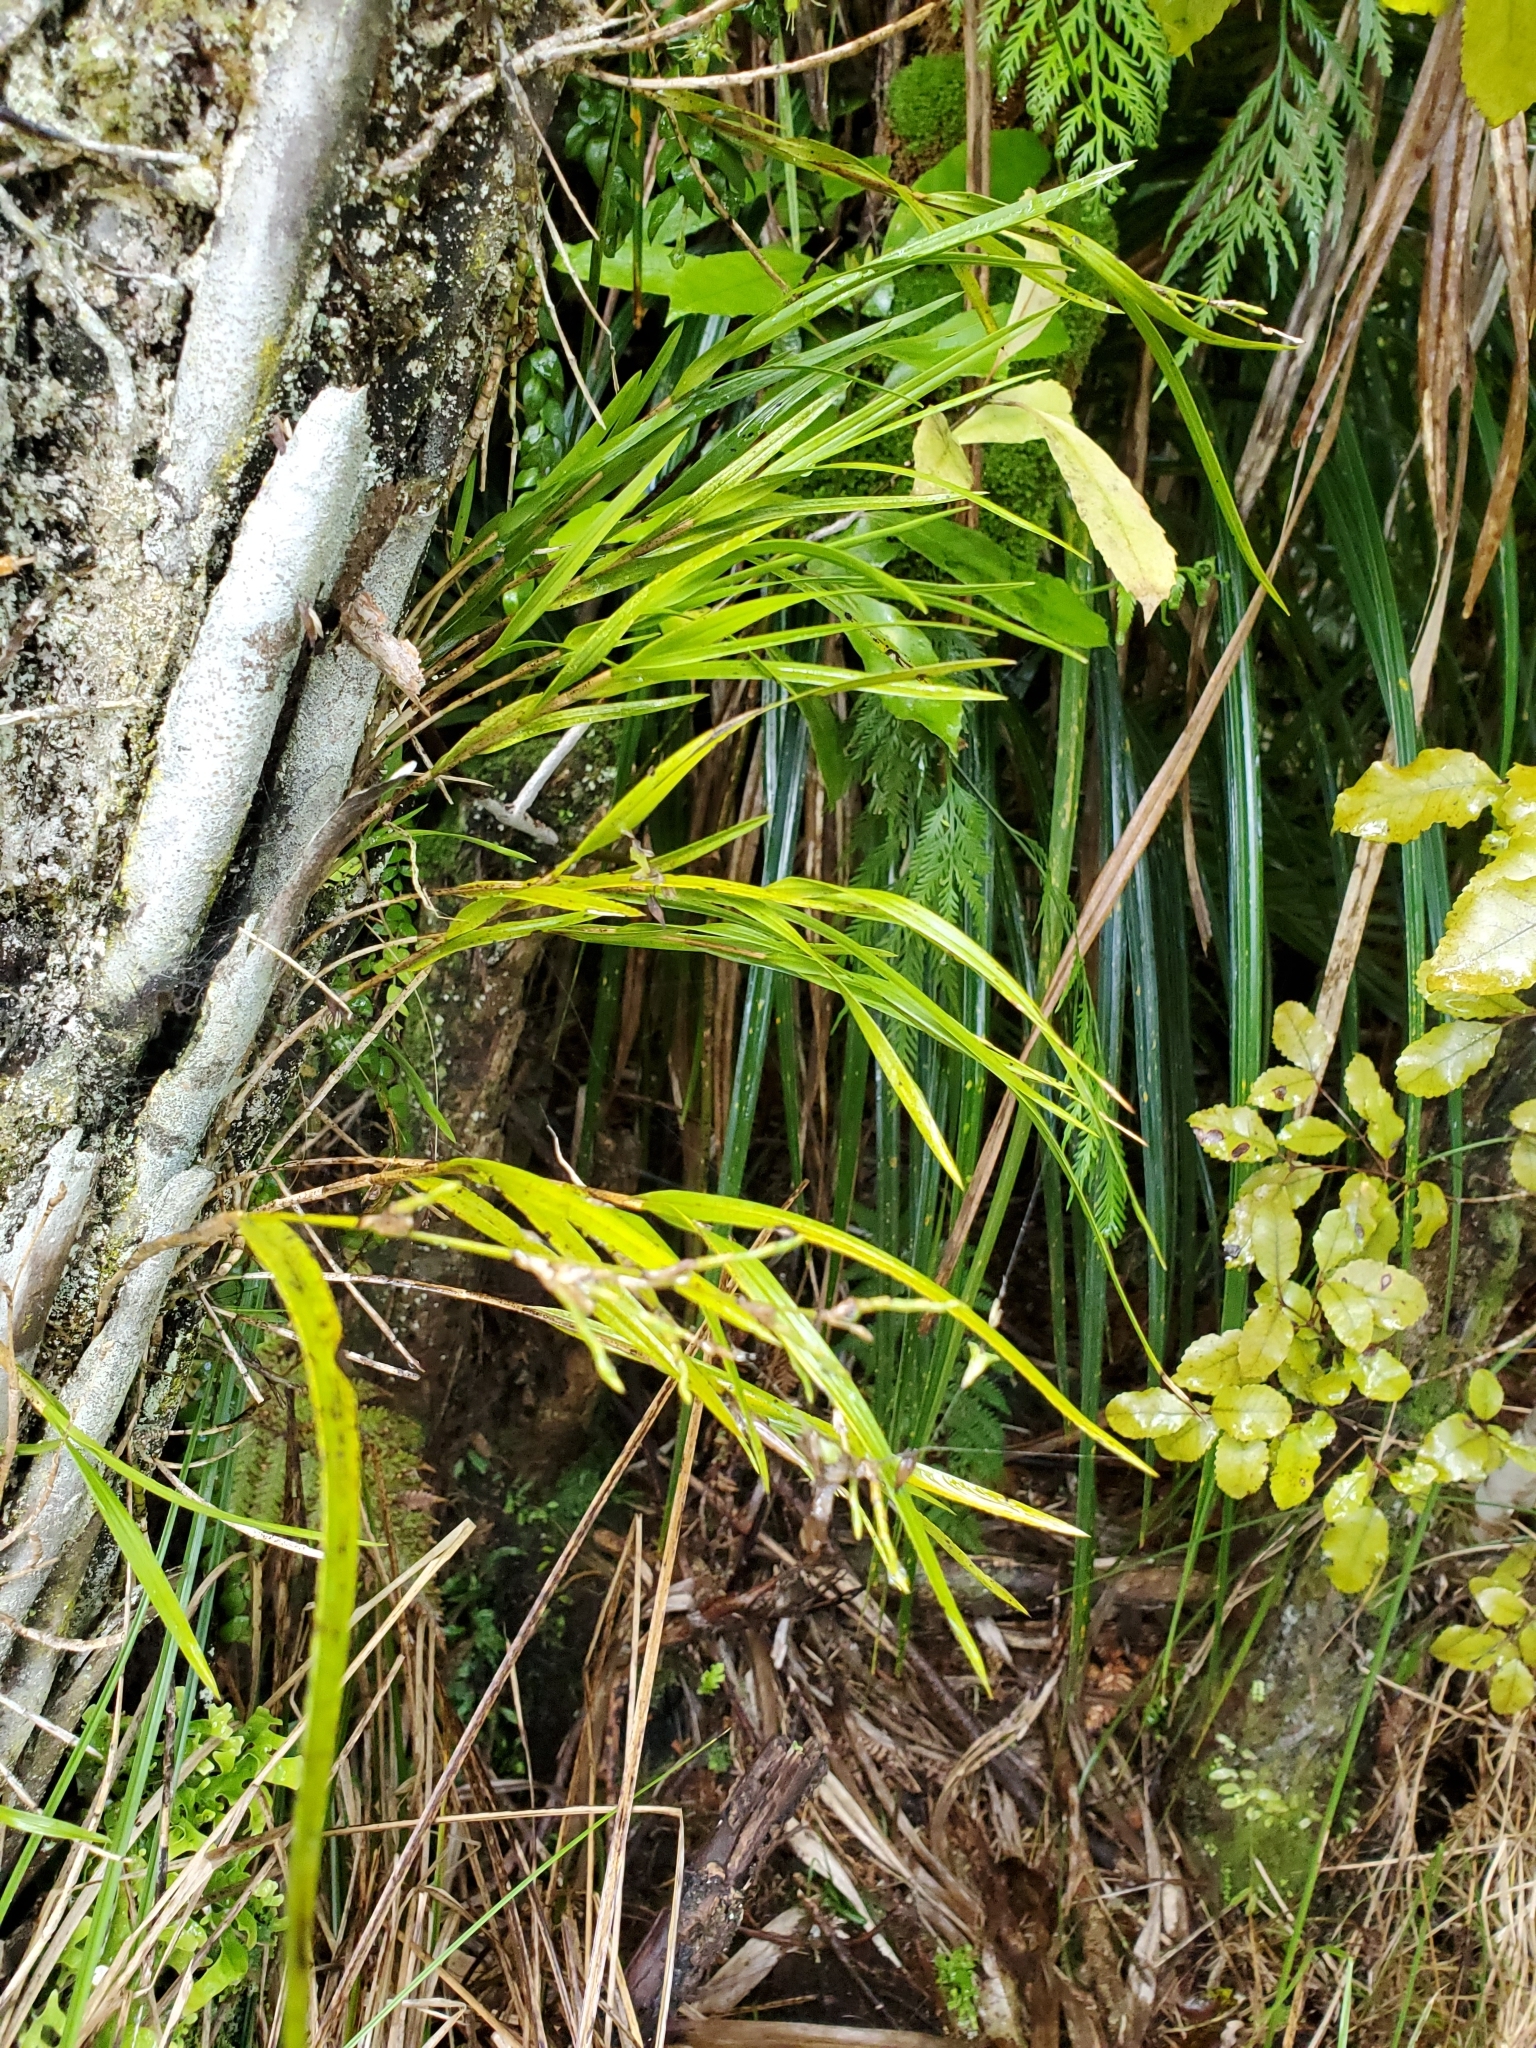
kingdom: Plantae
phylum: Tracheophyta
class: Liliopsida
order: Asparagales
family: Orchidaceae
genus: Earina
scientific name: Earina mucronata
